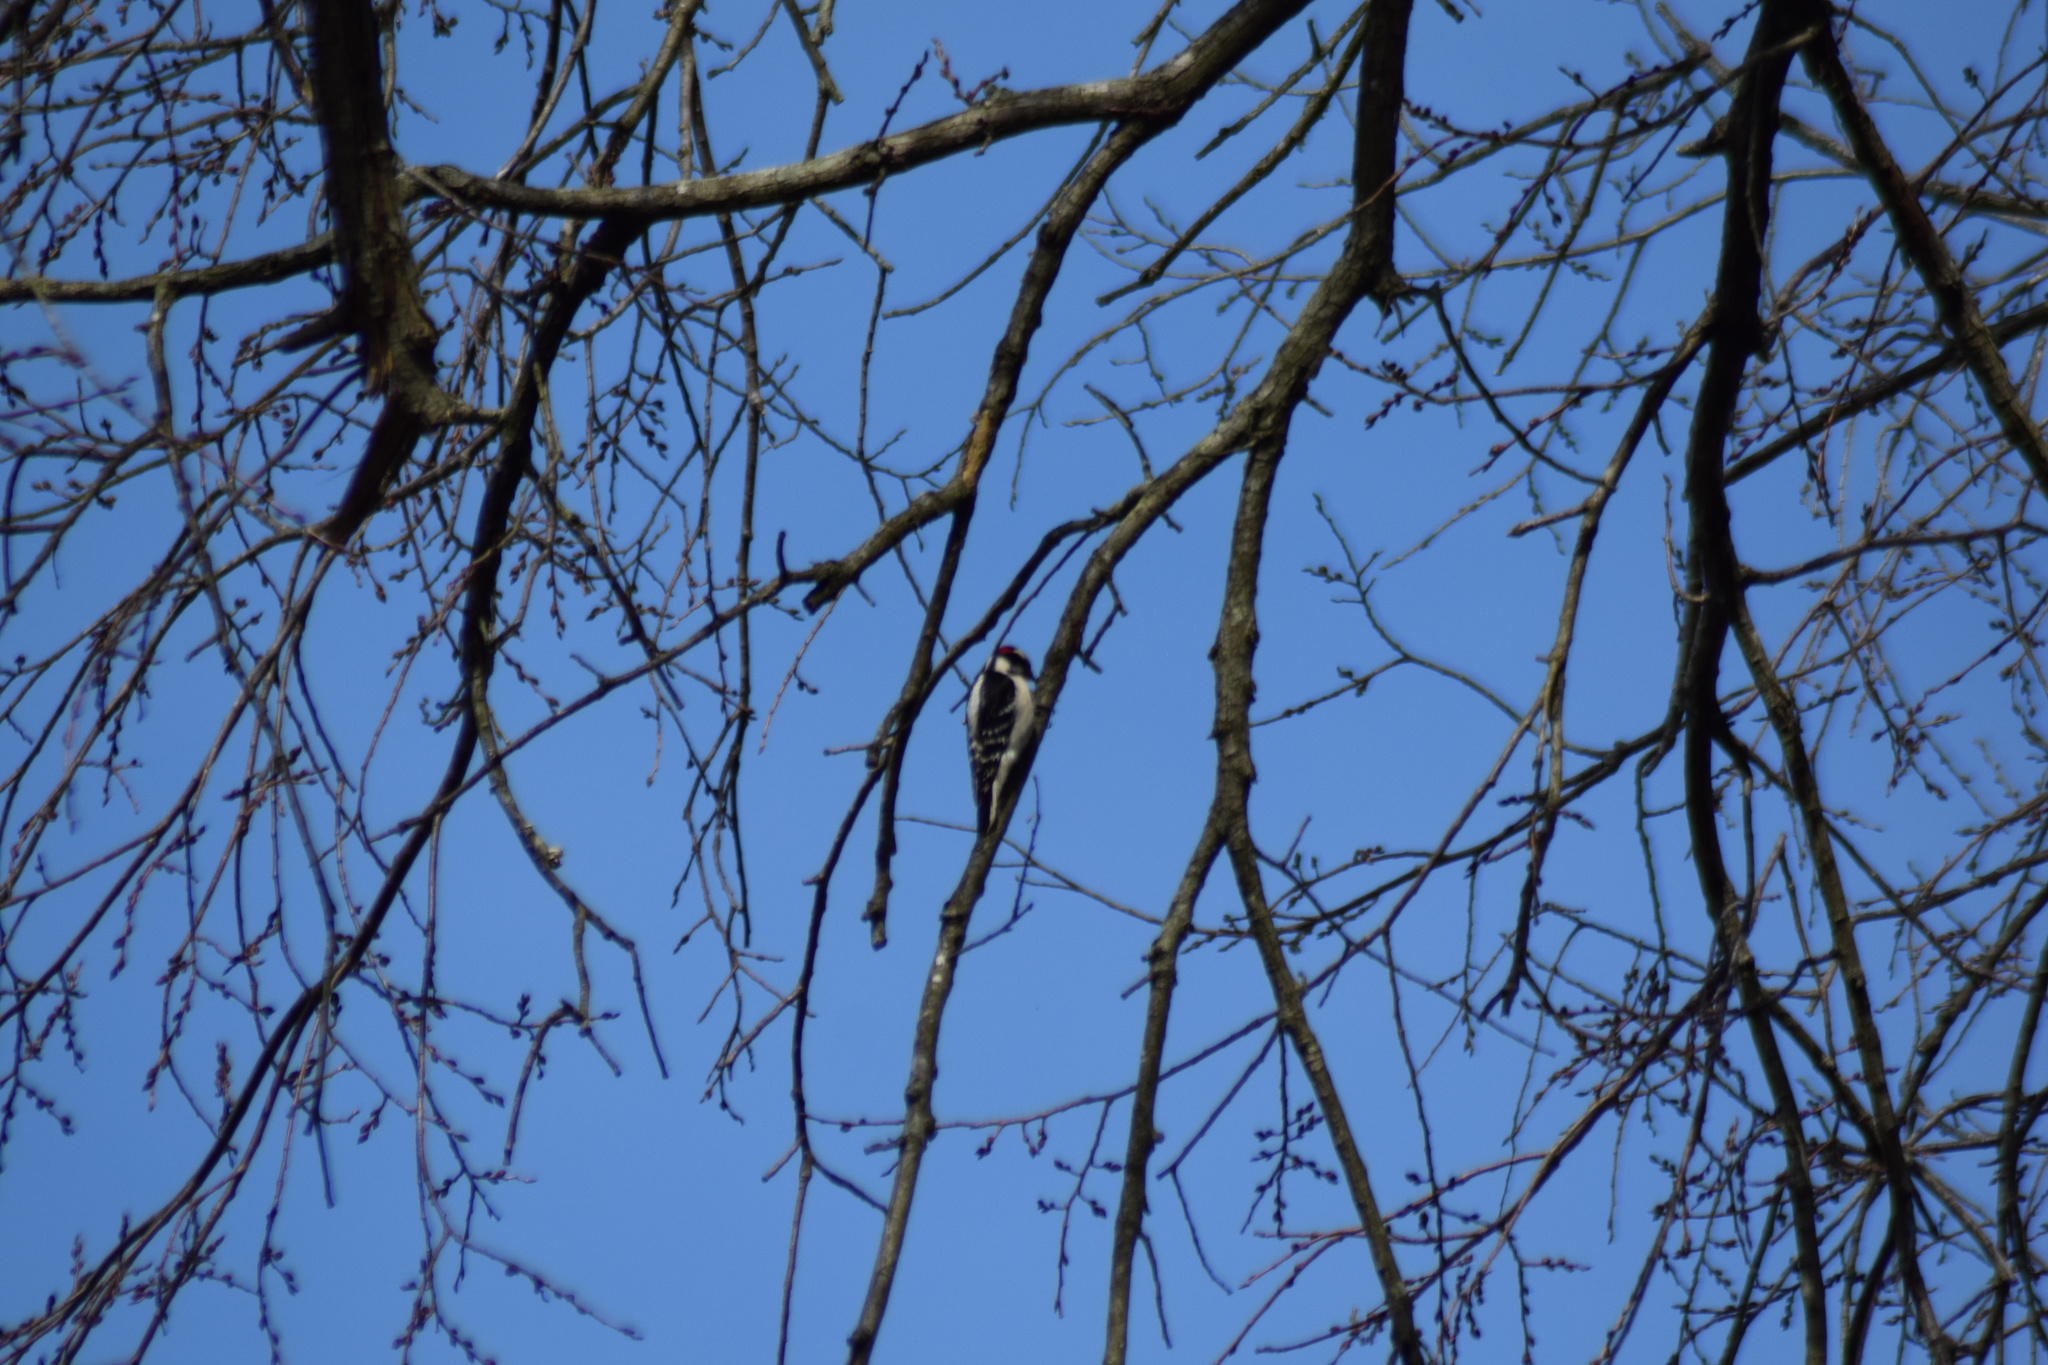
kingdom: Animalia
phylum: Chordata
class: Aves
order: Piciformes
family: Picidae
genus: Leuconotopicus
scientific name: Leuconotopicus villosus
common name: Hairy woodpecker
